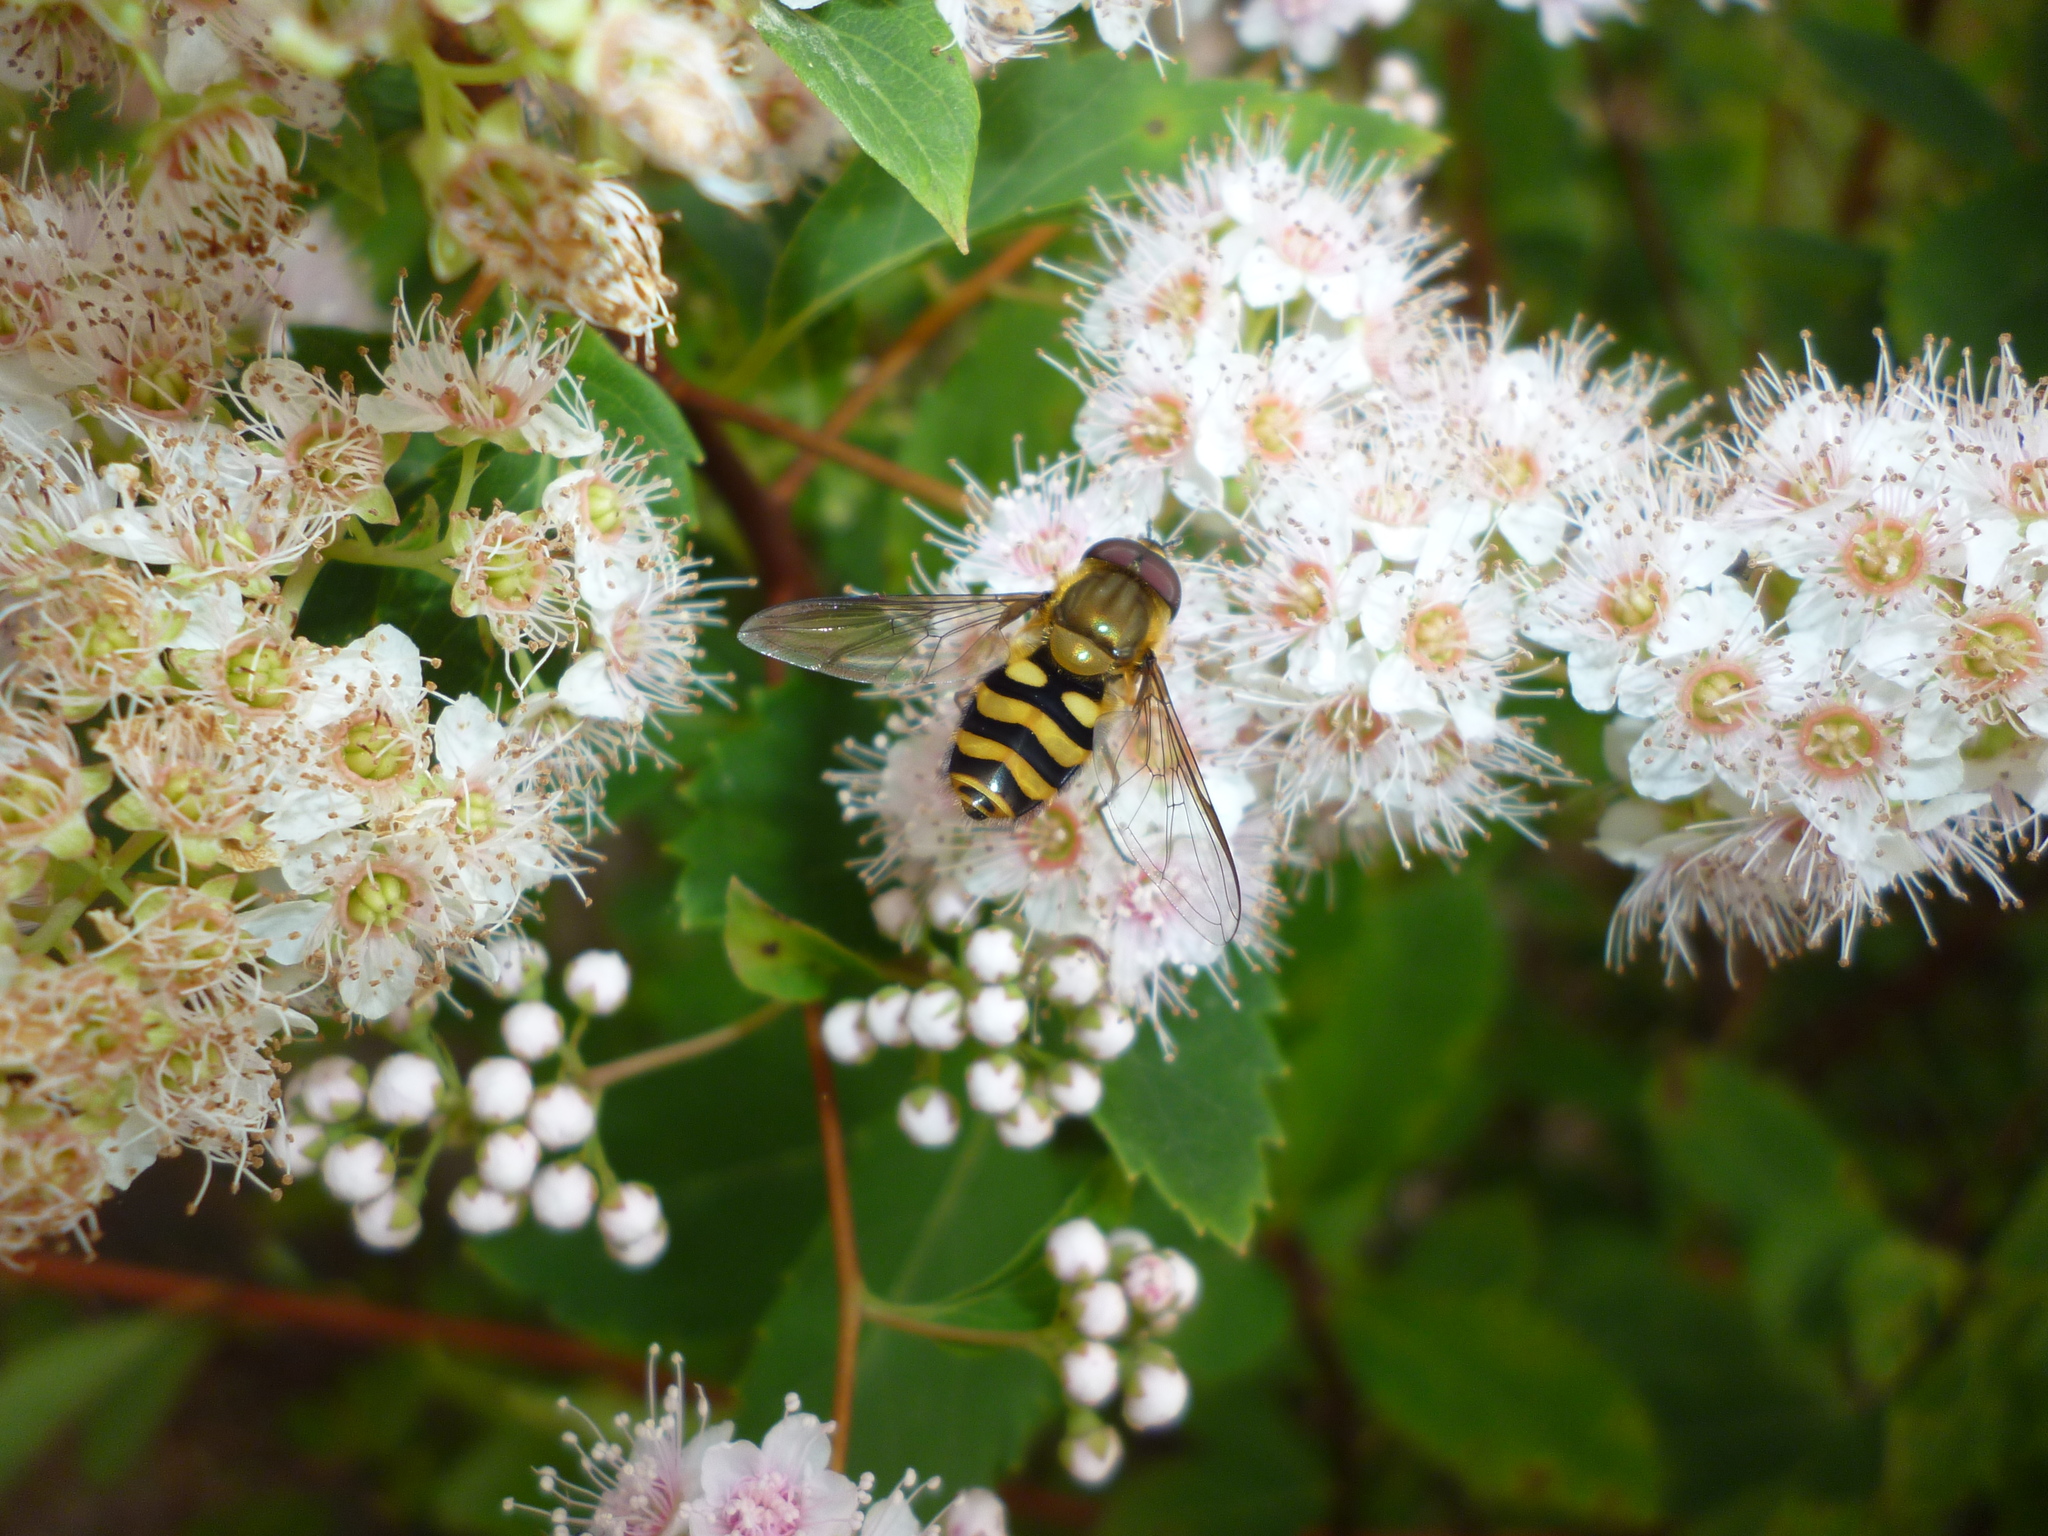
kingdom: Plantae
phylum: Tracheophyta
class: Magnoliopsida
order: Rosales
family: Rosaceae
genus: Spiraea
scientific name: Spiraea alba
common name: Pale bridewort
